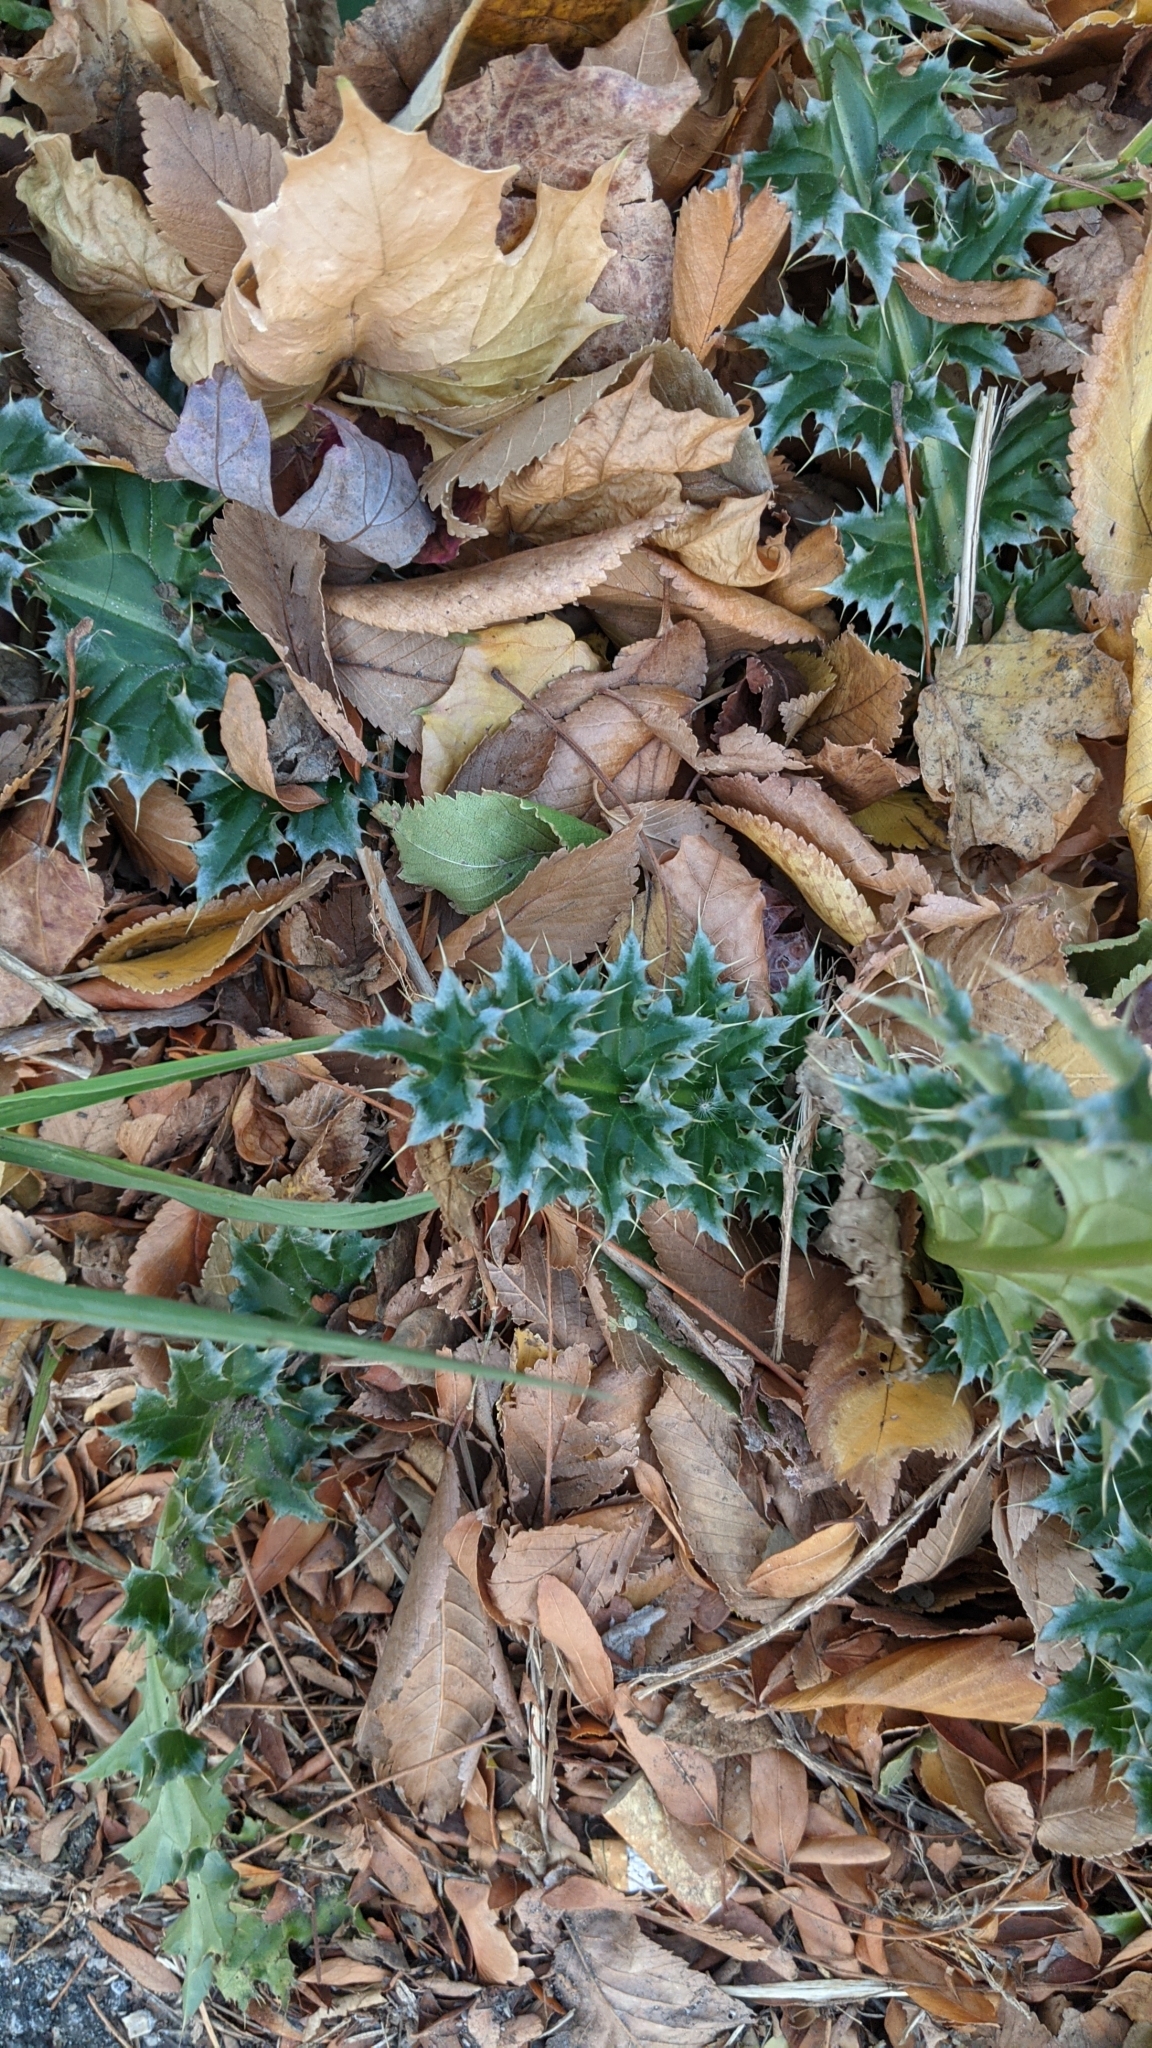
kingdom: Plantae
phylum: Tracheophyta
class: Magnoliopsida
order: Asterales
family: Asteraceae
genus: Carduus
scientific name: Carduus nutans
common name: Musk thistle
